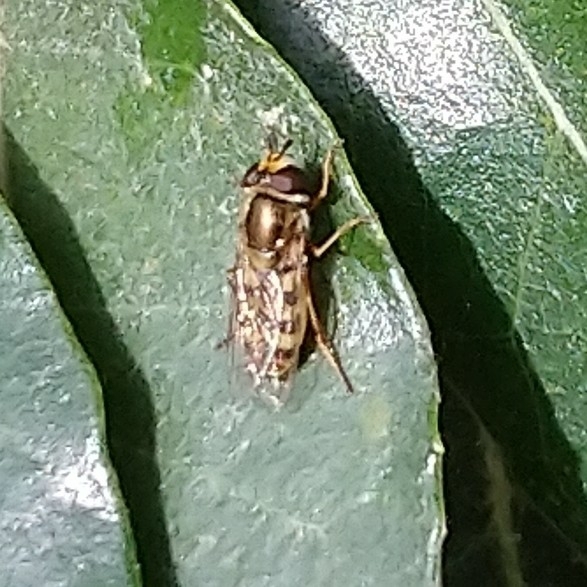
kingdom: Animalia
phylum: Arthropoda
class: Insecta
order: Diptera
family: Syrphidae
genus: Eupeodes
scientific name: Eupeodes corollae
